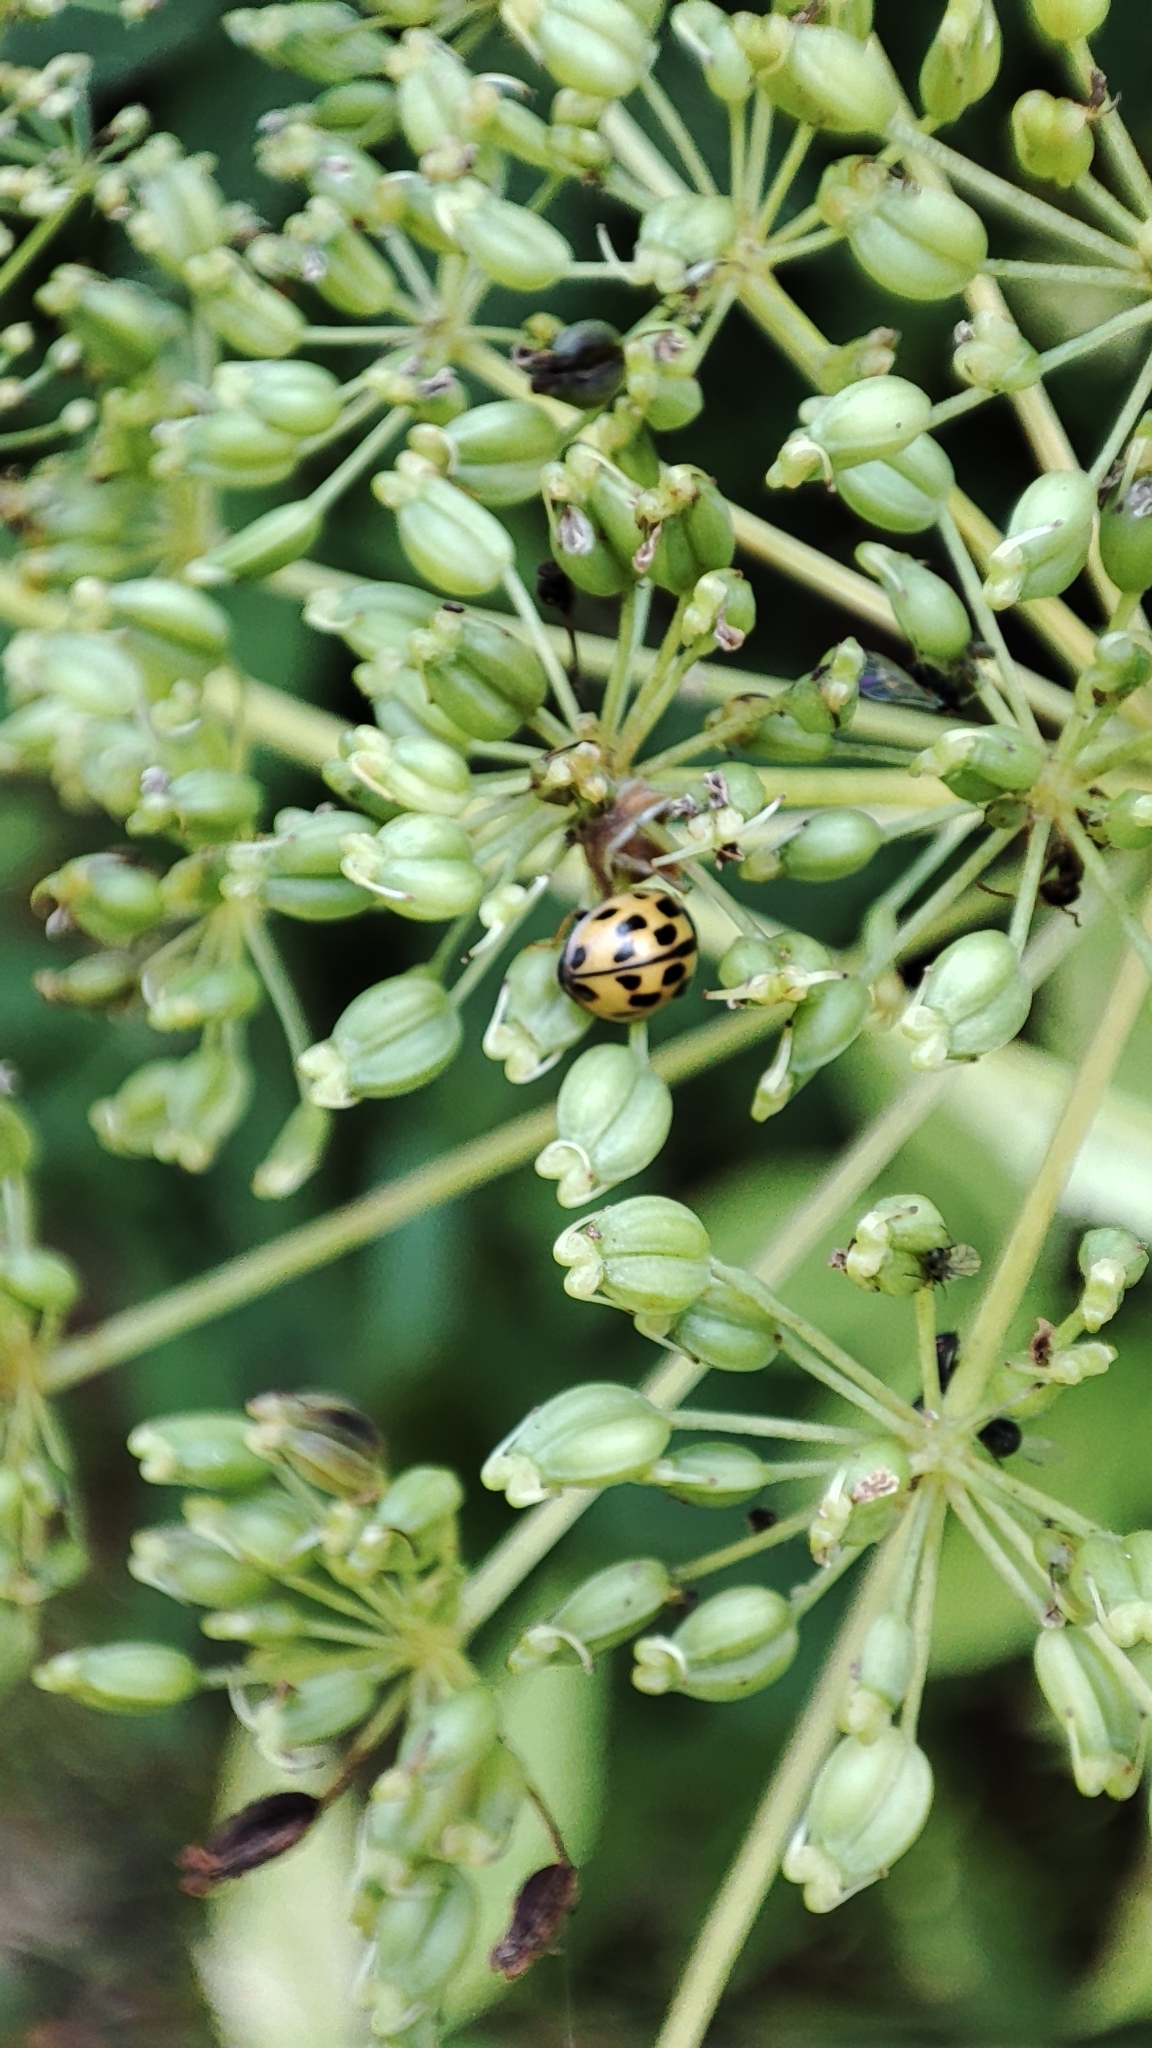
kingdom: Animalia
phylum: Arthropoda
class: Insecta
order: Coleoptera
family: Coccinellidae
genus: Propylaea
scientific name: Propylaea quatuordecimpunctata
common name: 14-spotted ladybird beetle
